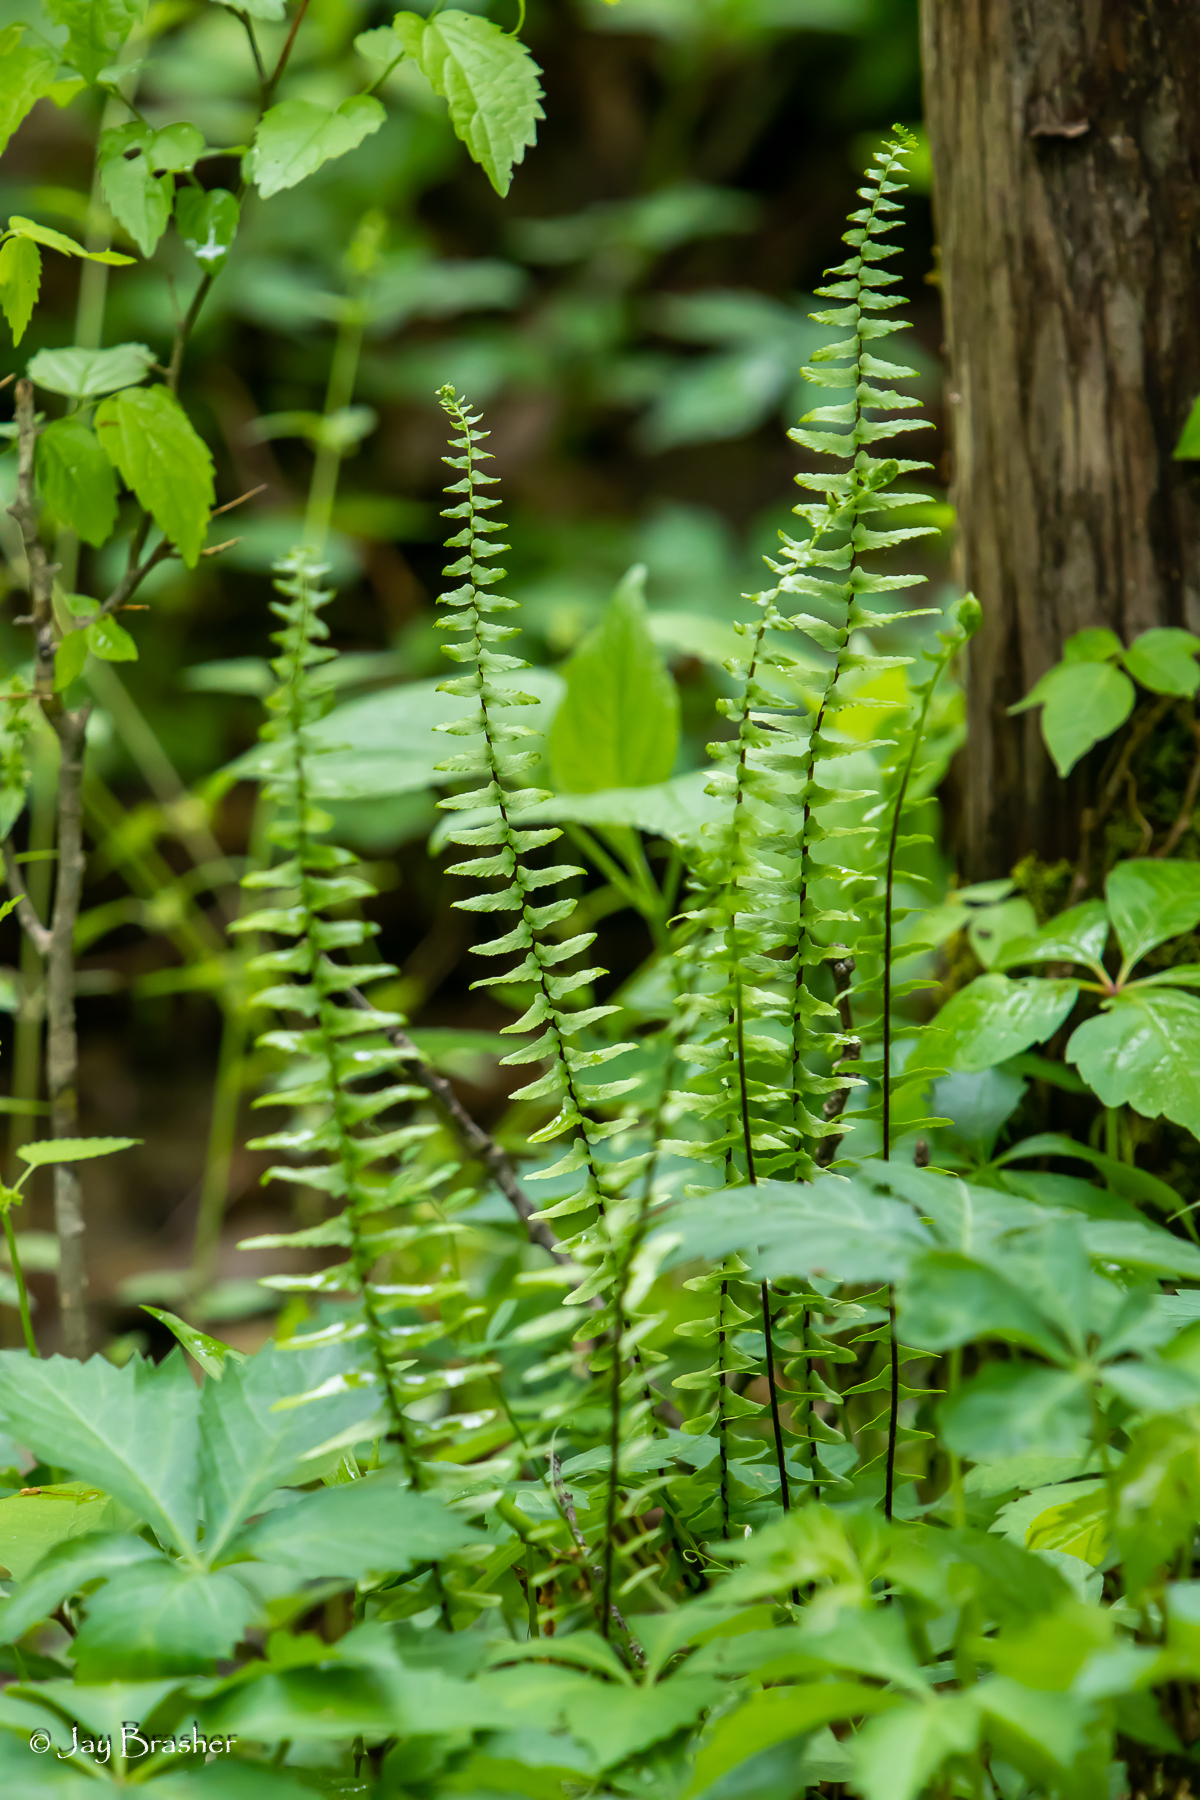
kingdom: Plantae
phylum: Tracheophyta
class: Polypodiopsida
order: Polypodiales
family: Aspleniaceae
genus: Asplenium
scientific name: Asplenium platyneuron
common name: Ebony spleenwort
